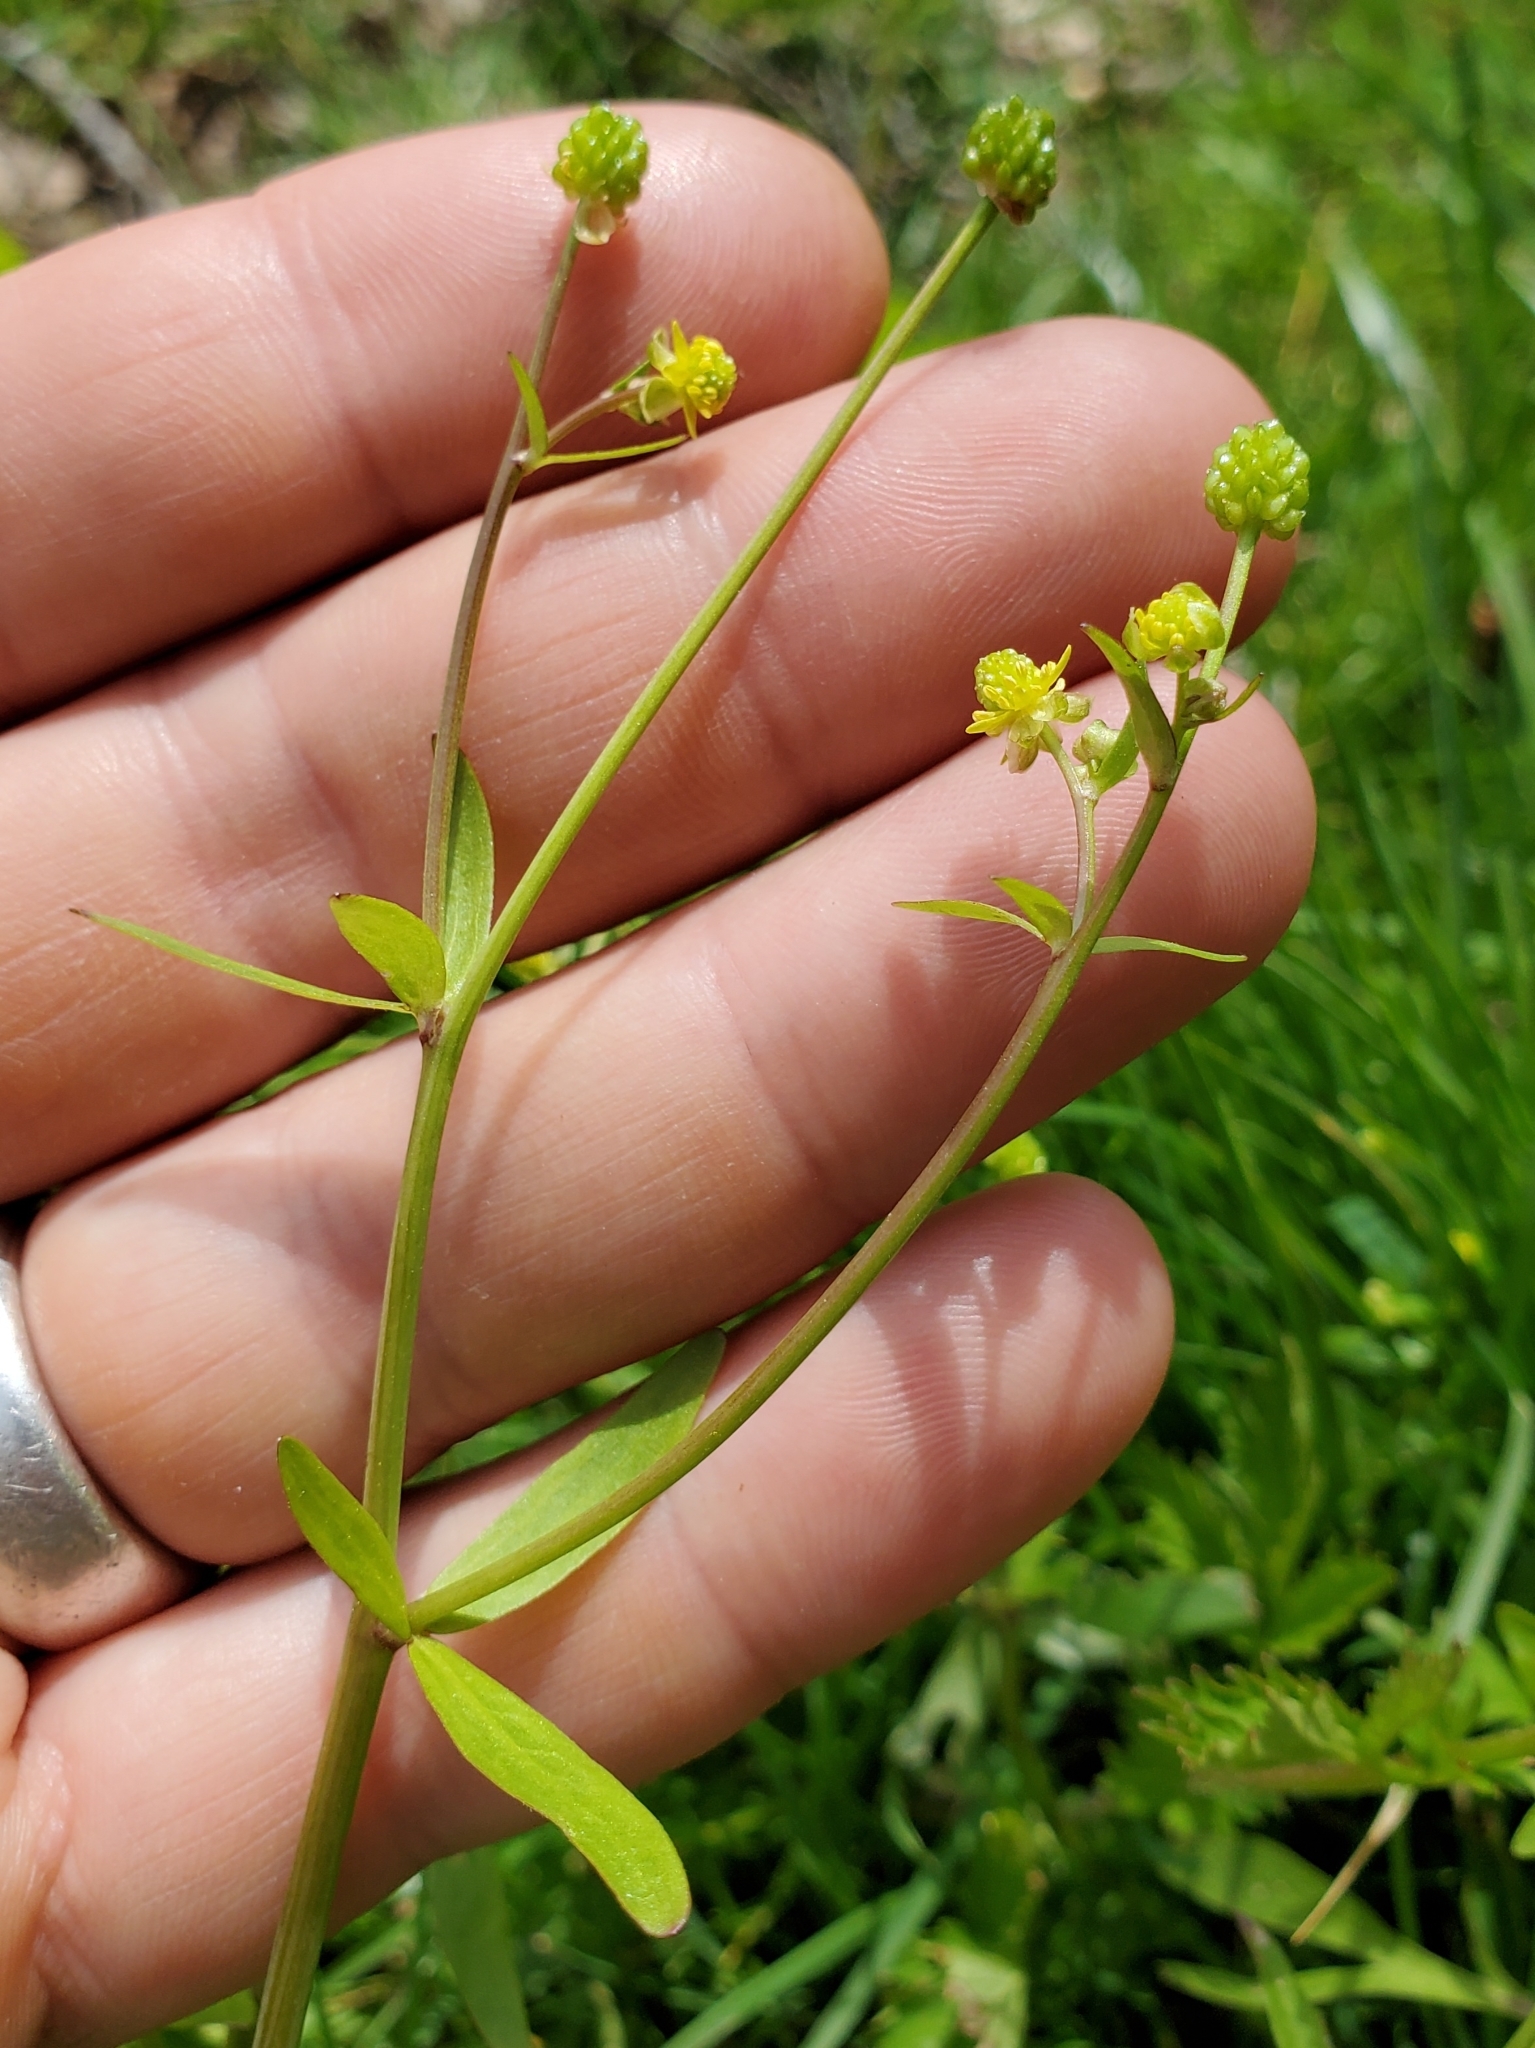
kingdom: Plantae
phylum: Tracheophyta
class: Magnoliopsida
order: Ranunculales
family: Ranunculaceae
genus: Ranunculus
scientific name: Ranunculus abortivus
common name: Early wood buttercup
